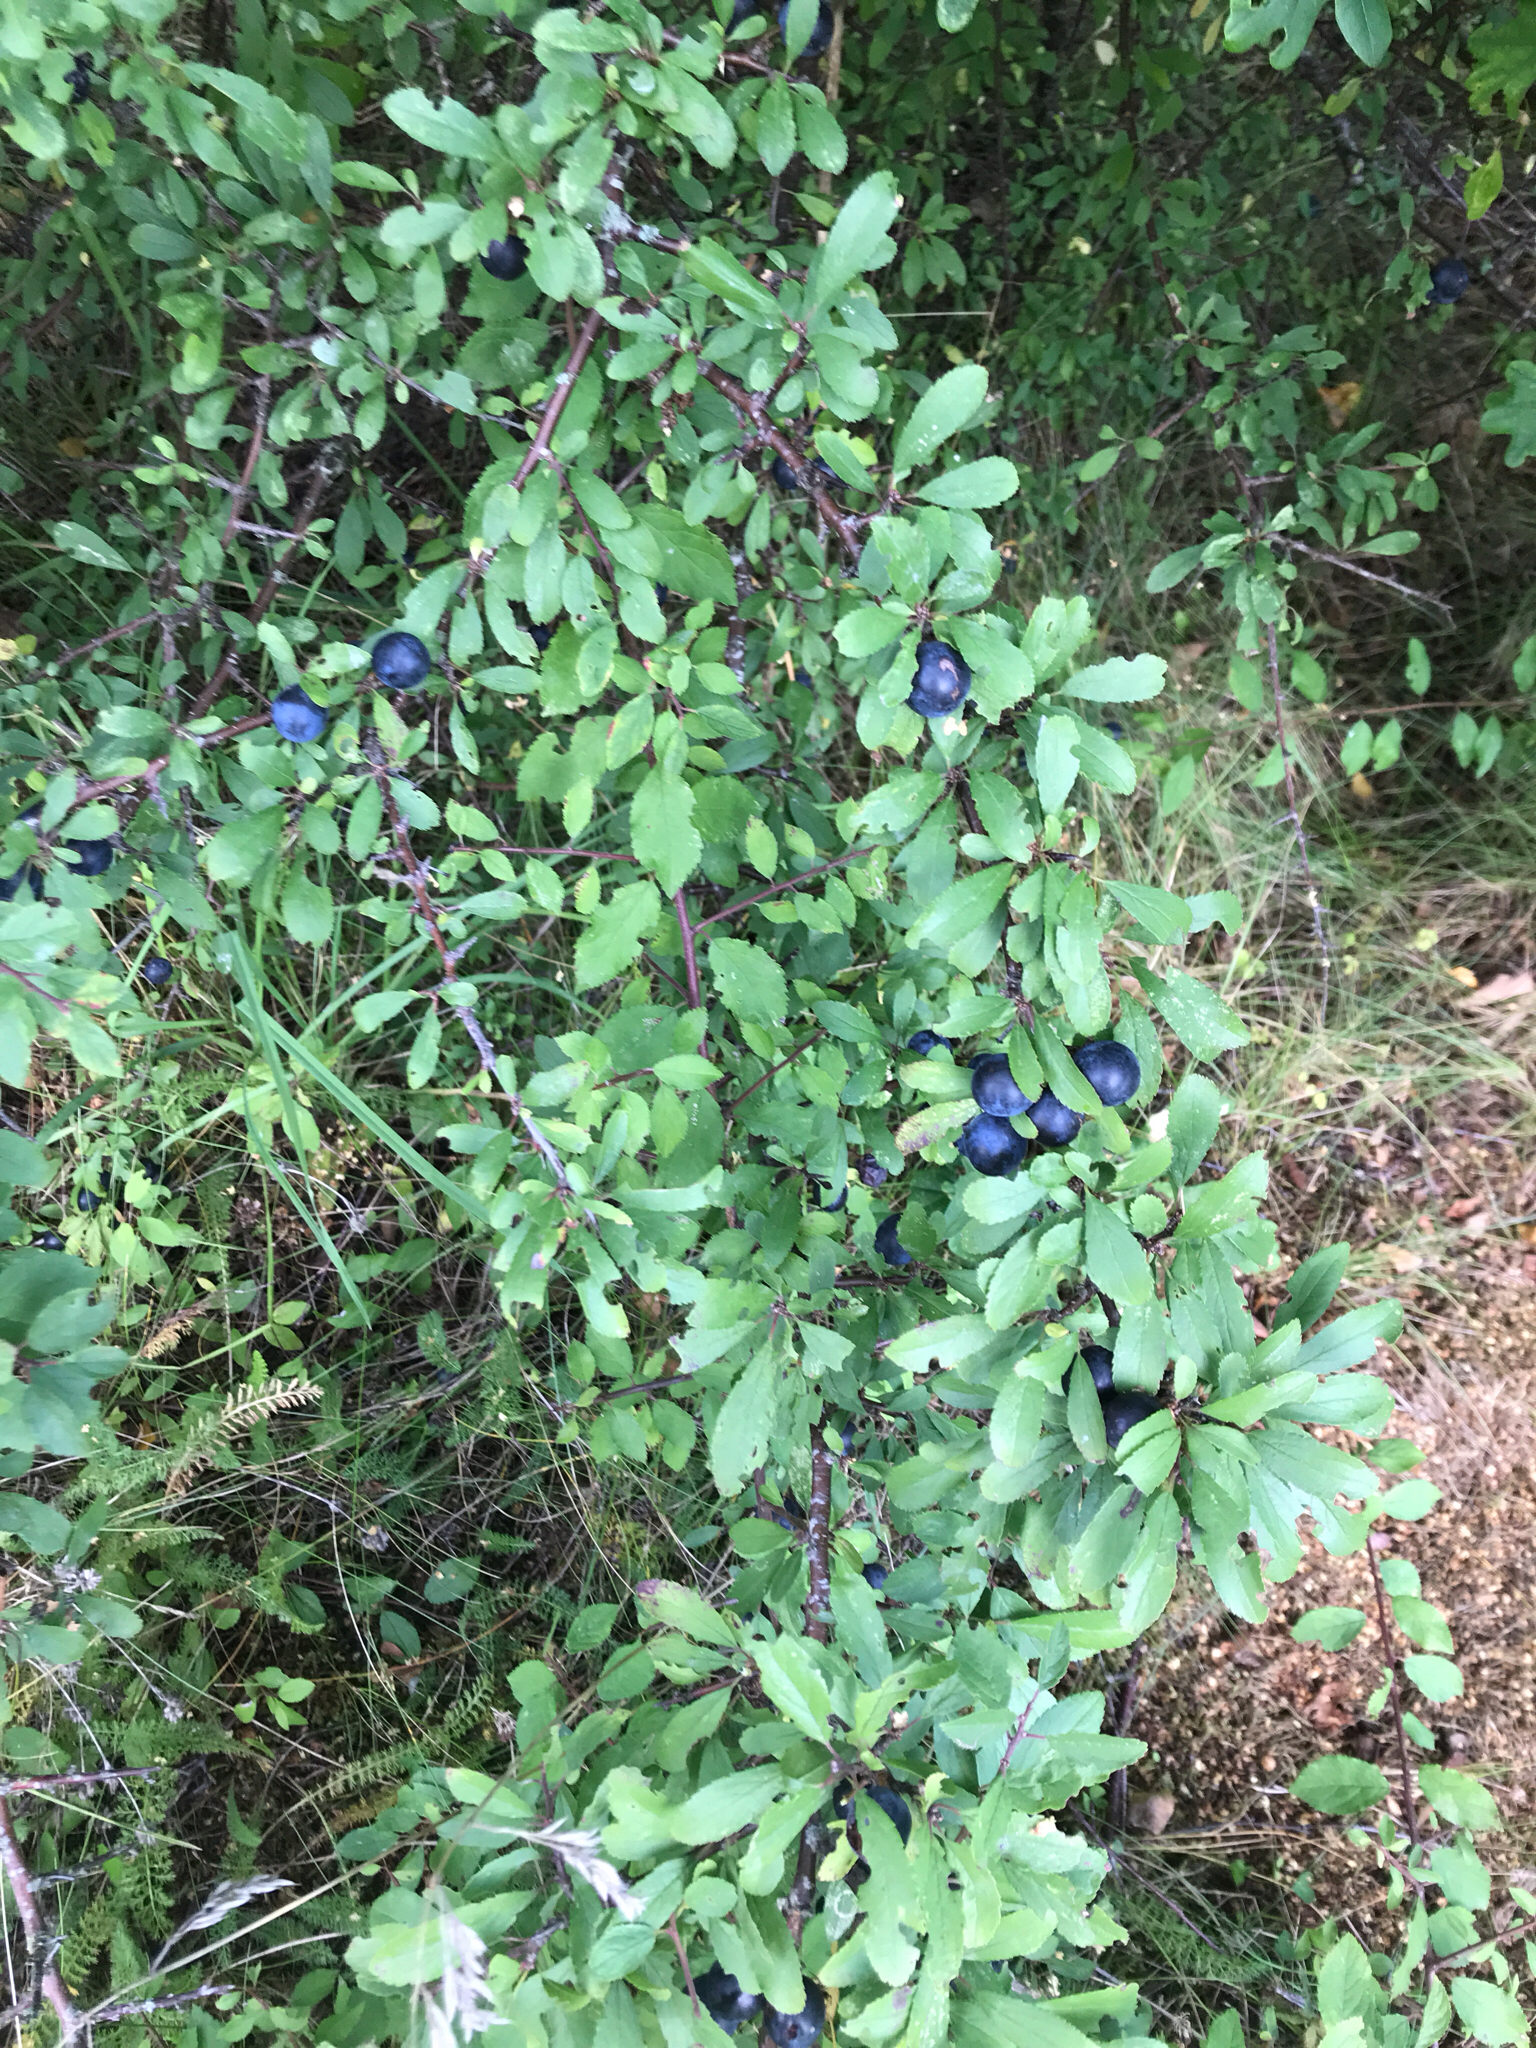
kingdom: Plantae
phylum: Tracheophyta
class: Magnoliopsida
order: Rosales
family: Rosaceae
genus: Prunus
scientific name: Prunus spinosa
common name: Blackthorn
